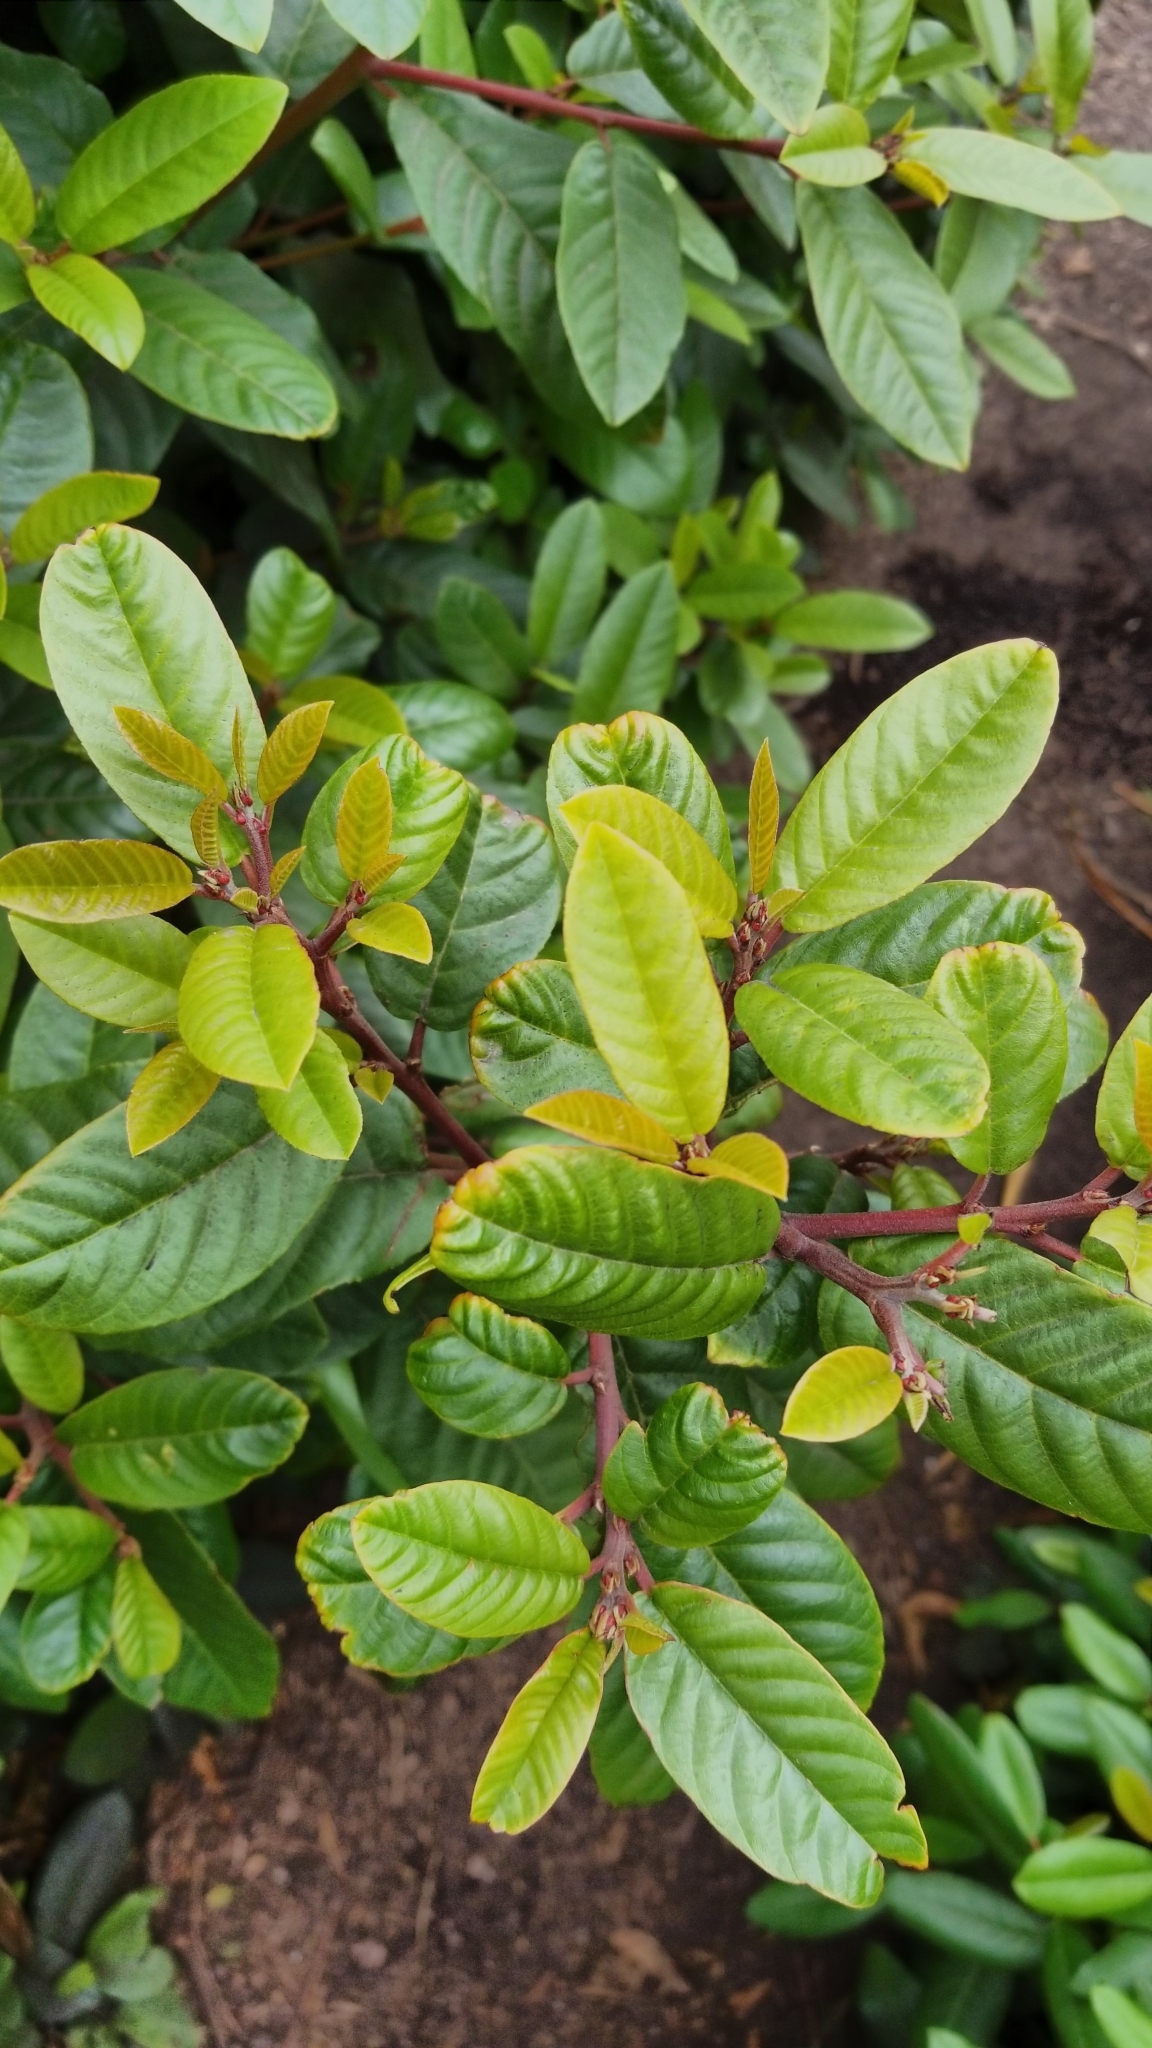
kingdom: Plantae
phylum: Tracheophyta
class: Magnoliopsida
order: Rosales
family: Rhamnaceae
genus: Frangula
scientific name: Frangula californica
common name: California buckthorn
